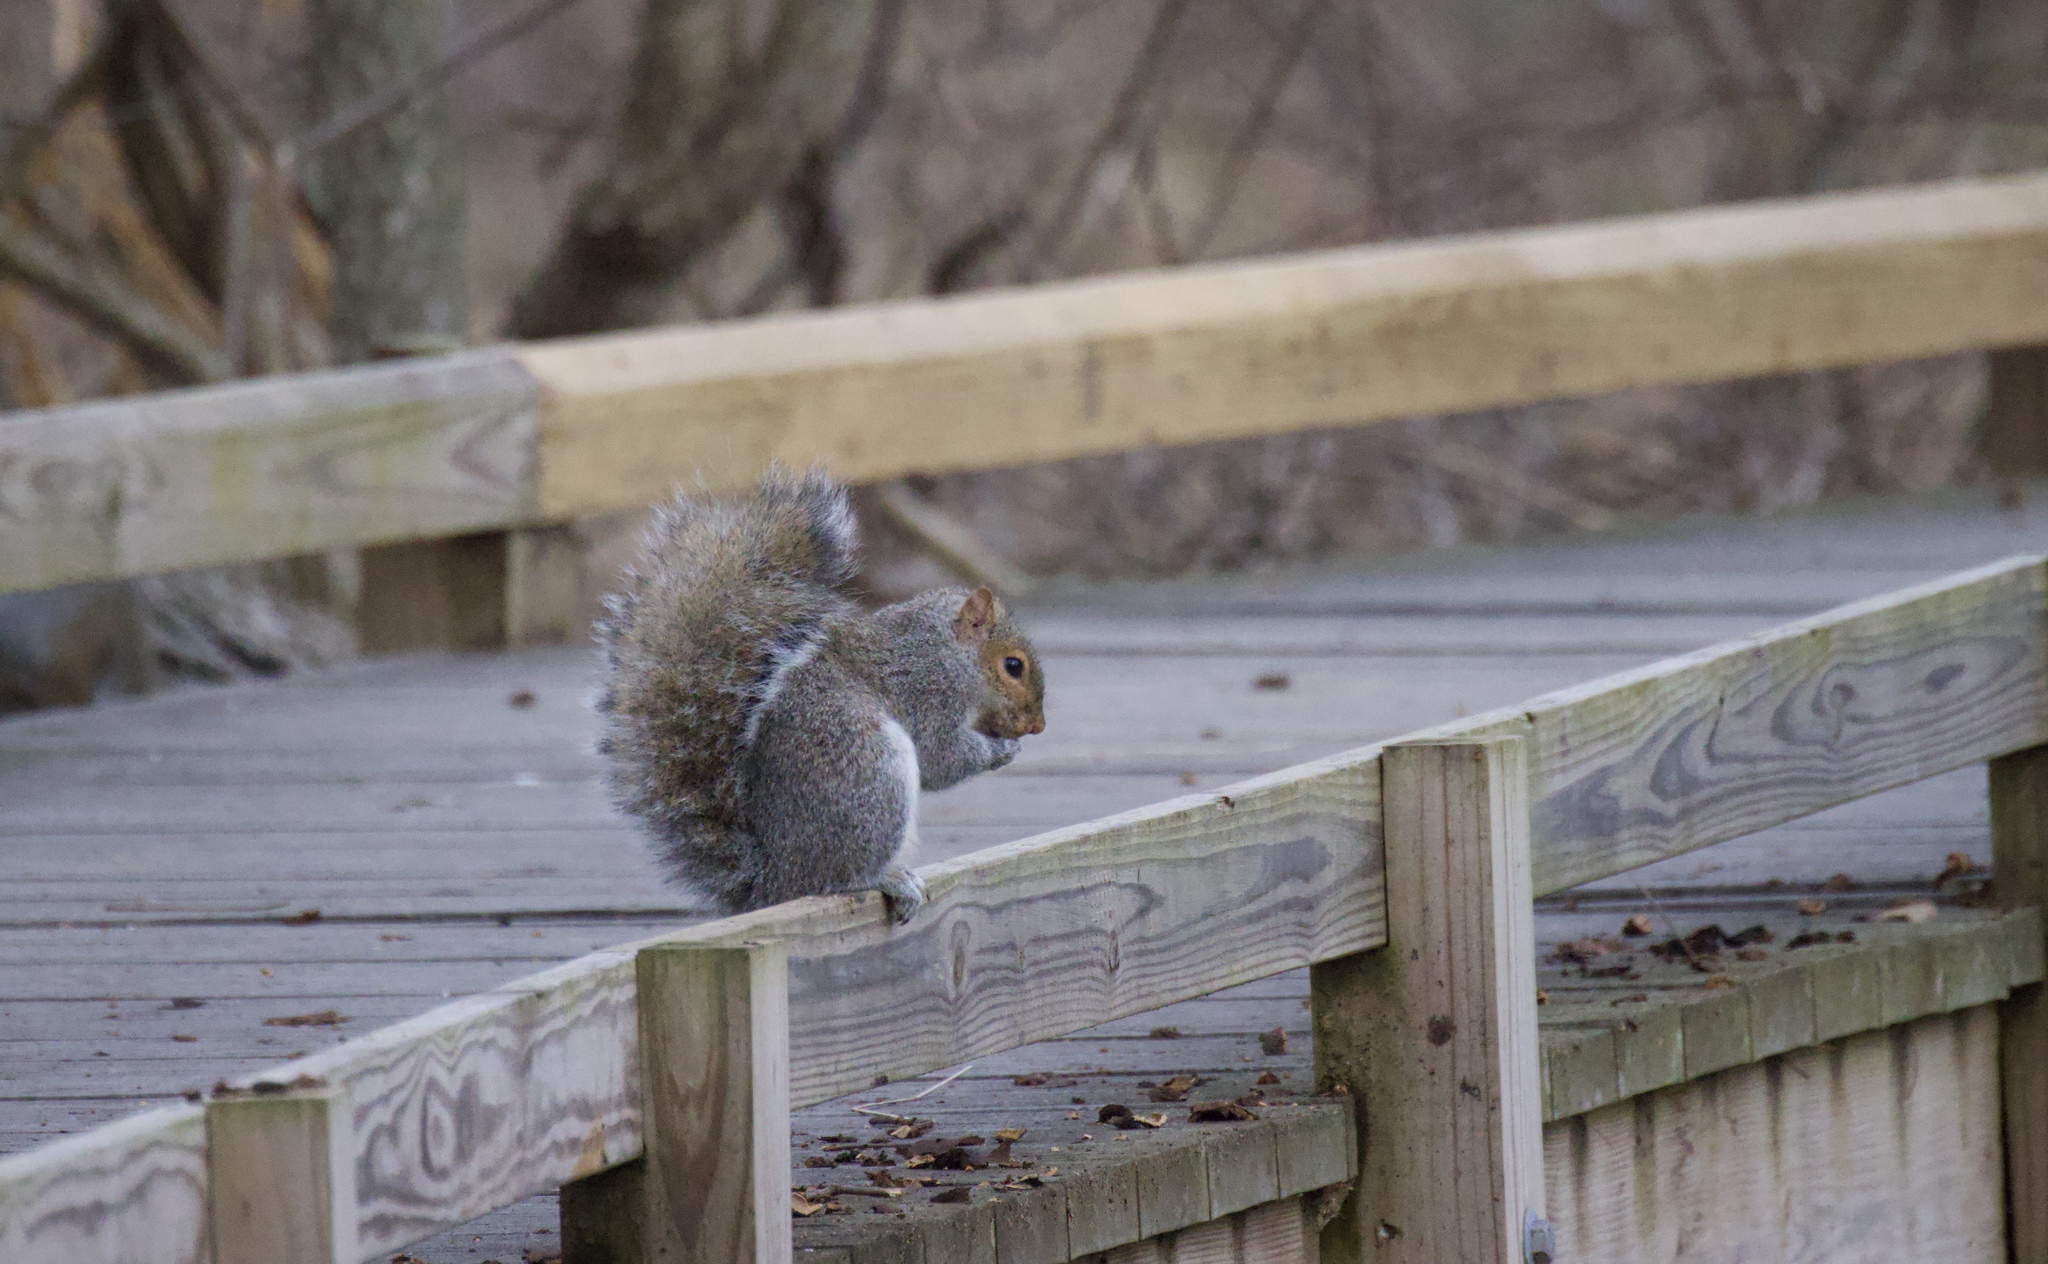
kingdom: Animalia
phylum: Chordata
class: Mammalia
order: Rodentia
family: Sciuridae
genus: Sciurus
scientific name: Sciurus carolinensis
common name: Eastern gray squirrel
